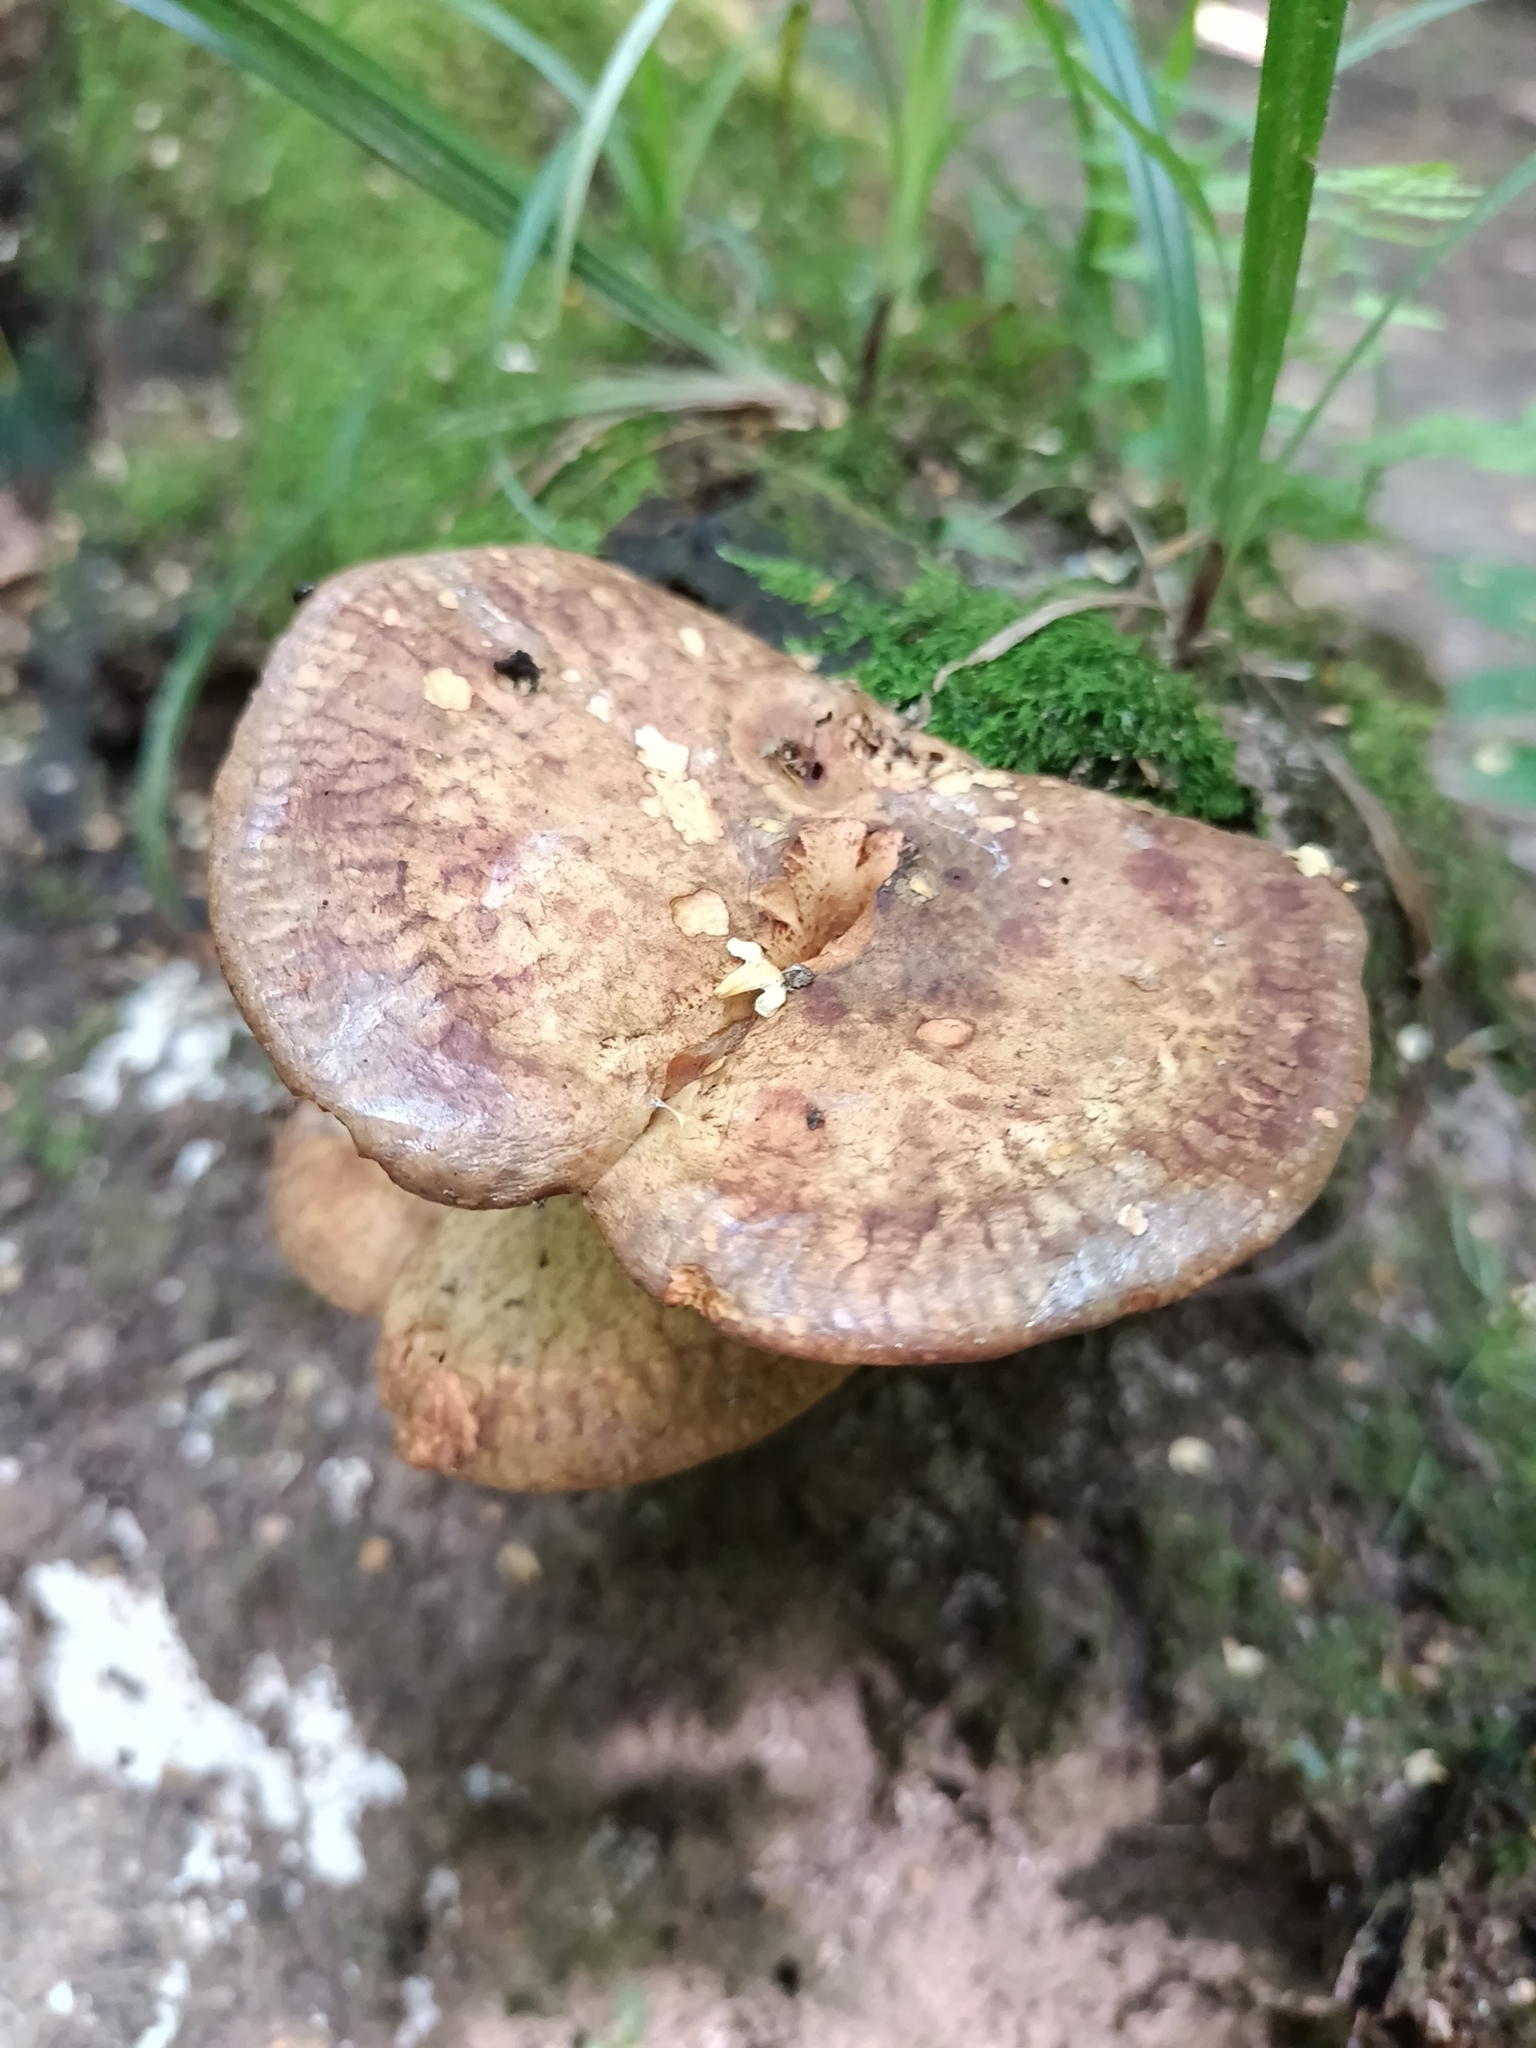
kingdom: Fungi
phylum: Basidiomycota
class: Agaricomycetes
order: Boletales
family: Paxillaceae
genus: Paxillus
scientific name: Paxillus involutus
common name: Brown roll rim
